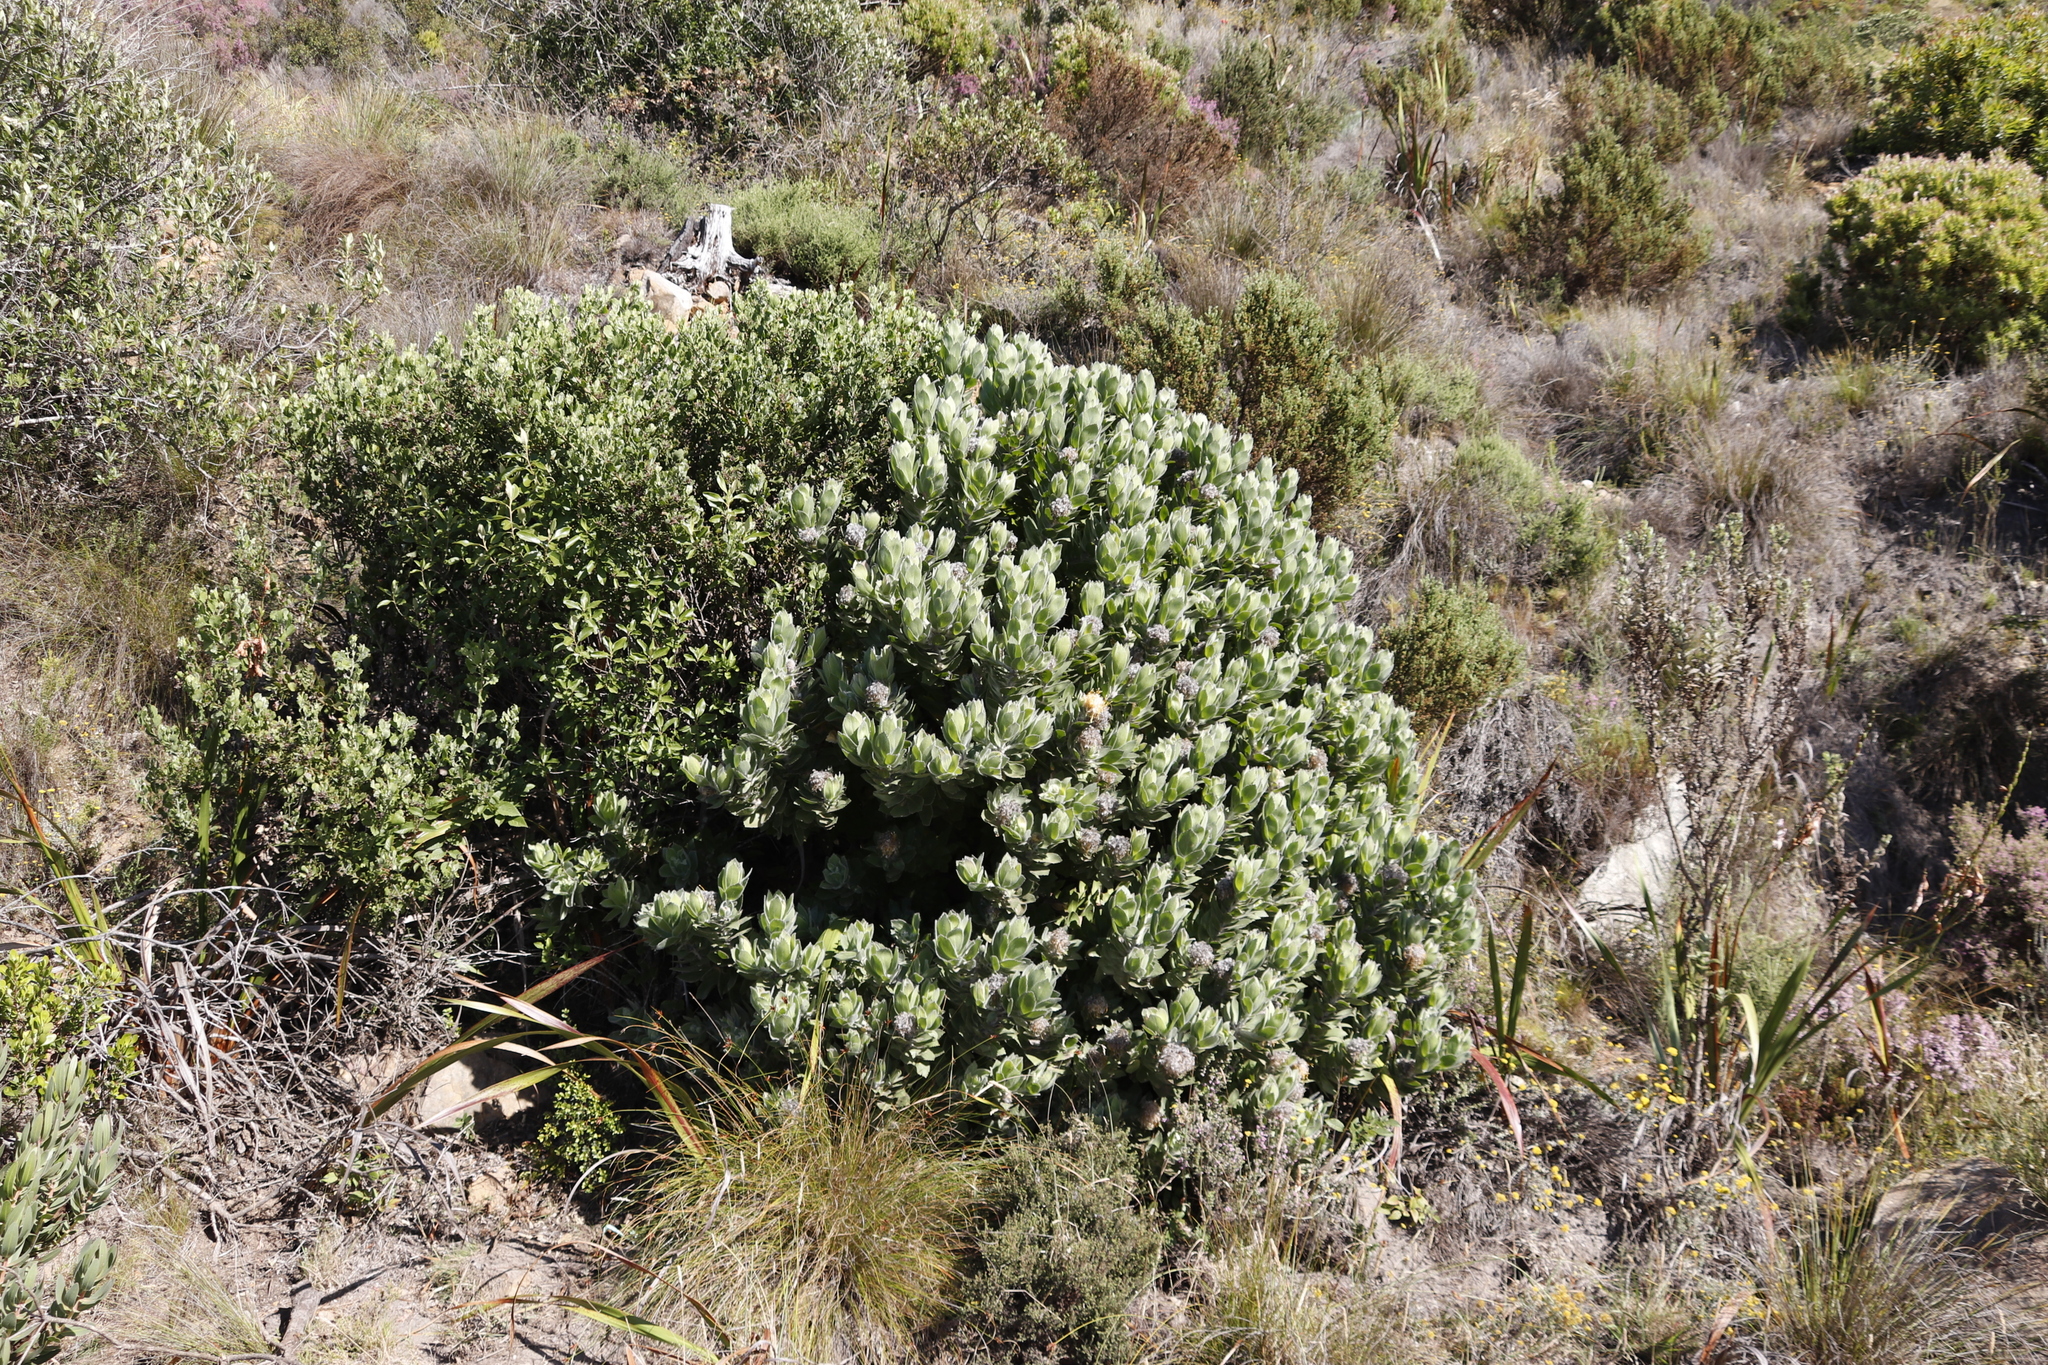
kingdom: Plantae
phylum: Tracheophyta
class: Magnoliopsida
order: Proteales
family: Proteaceae
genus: Leucospermum
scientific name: Leucospermum conocarpodendron
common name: Tree pincushion
